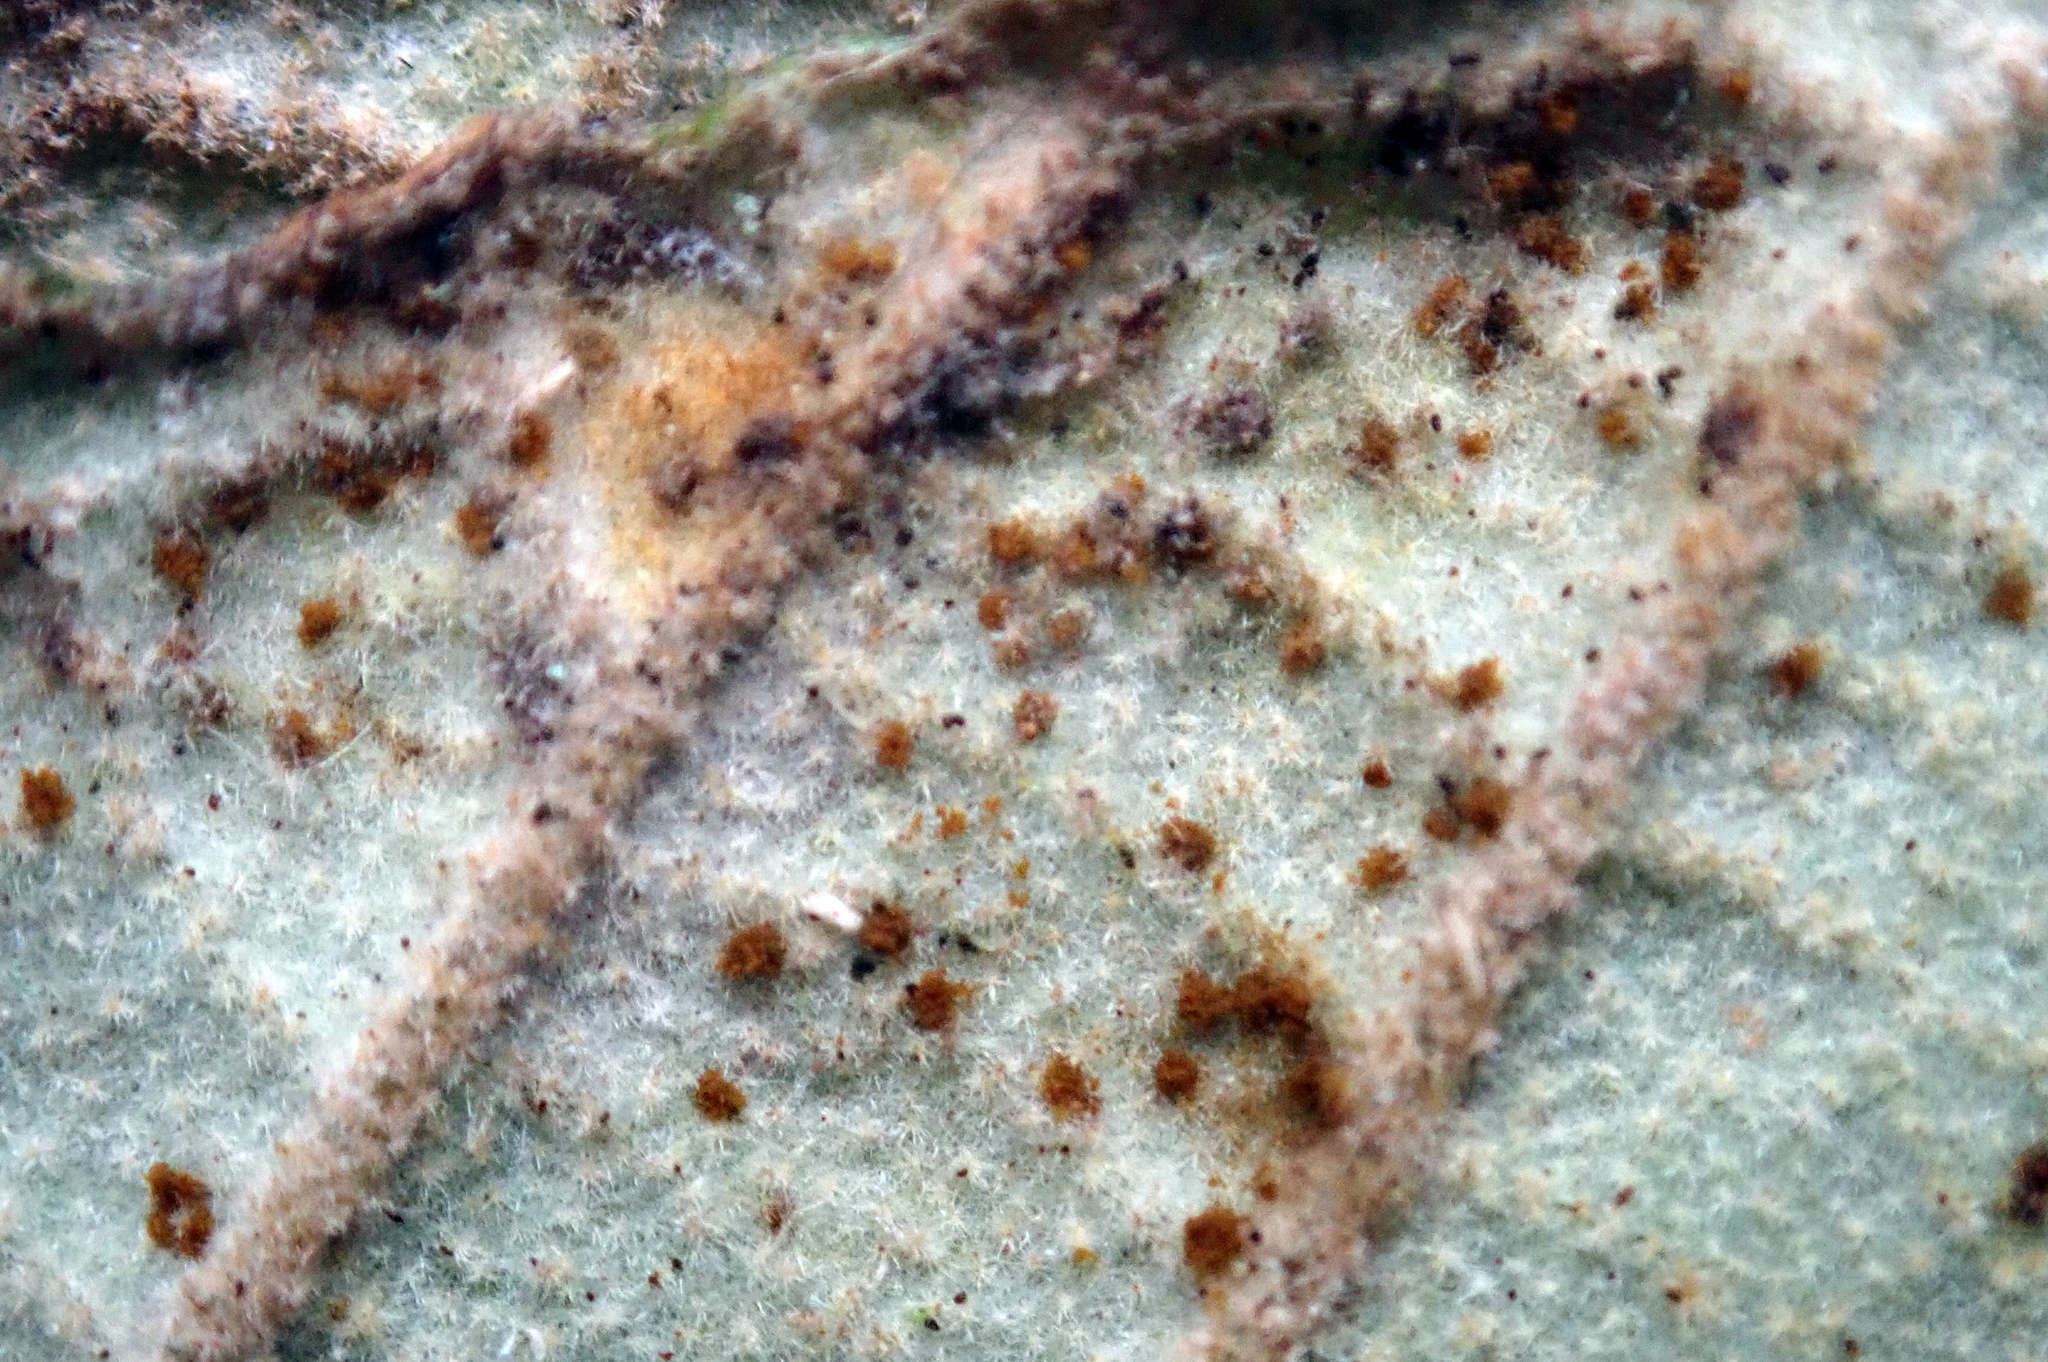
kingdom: Fungi
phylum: Basidiomycota
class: Pucciniomycetes
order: Pucciniales
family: Pucciniaceae
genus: Uredo
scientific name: Uredo spyridii
